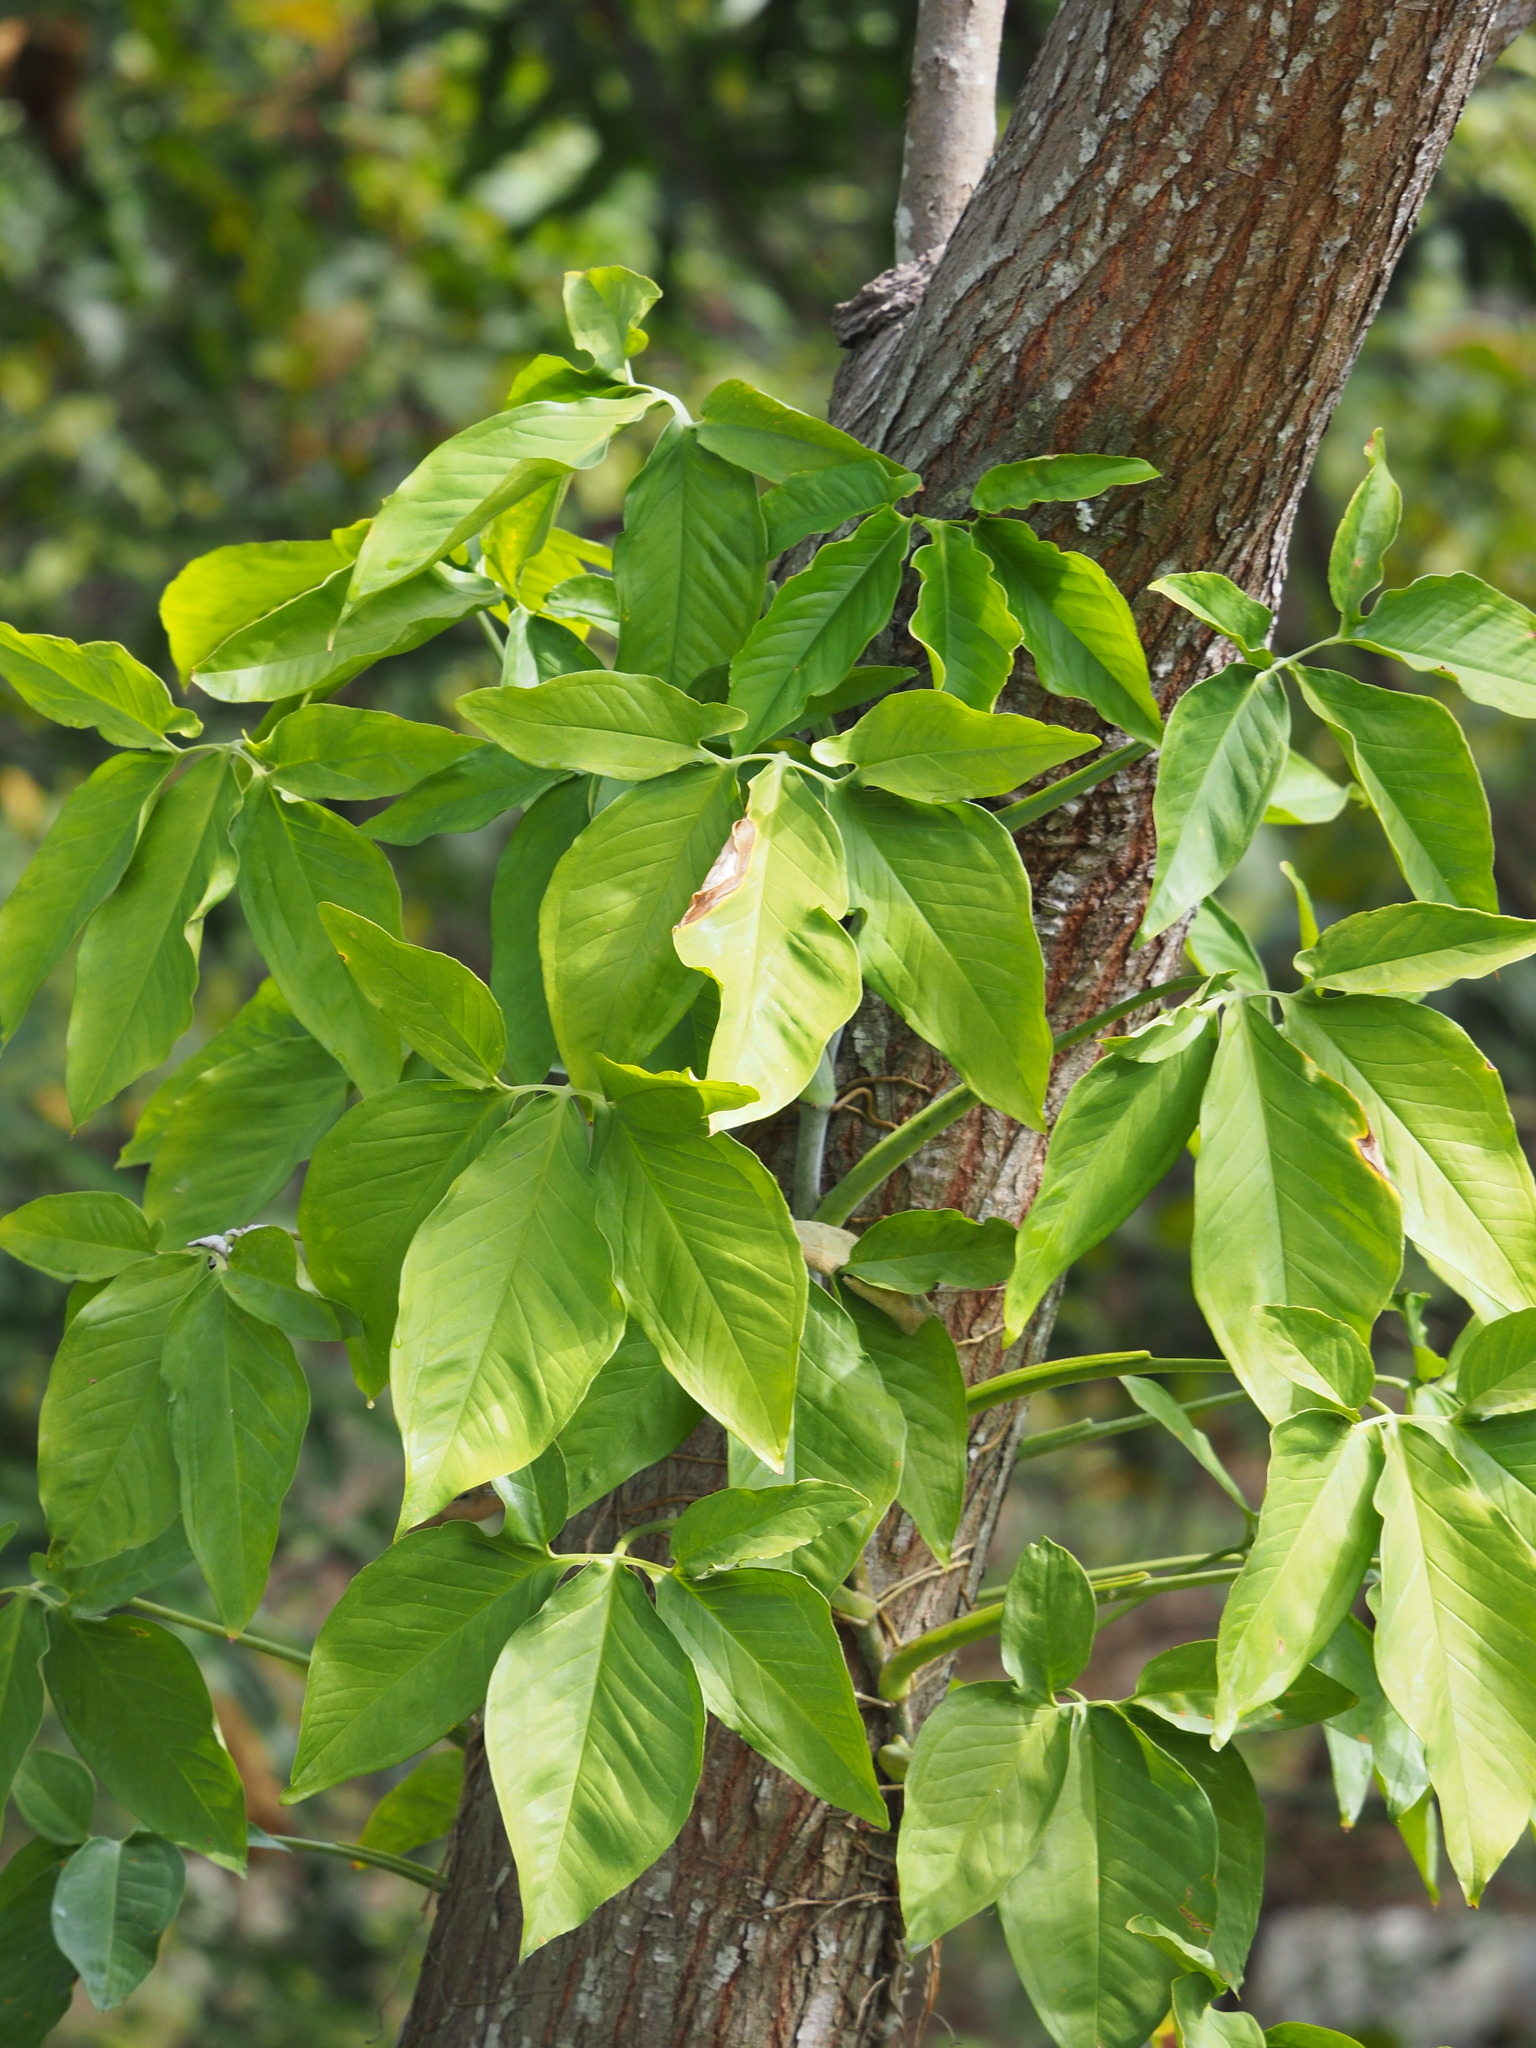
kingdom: Plantae
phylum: Tracheophyta
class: Liliopsida
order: Alismatales
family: Araceae
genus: Syngonium
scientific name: Syngonium podophyllum
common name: American evergreen
